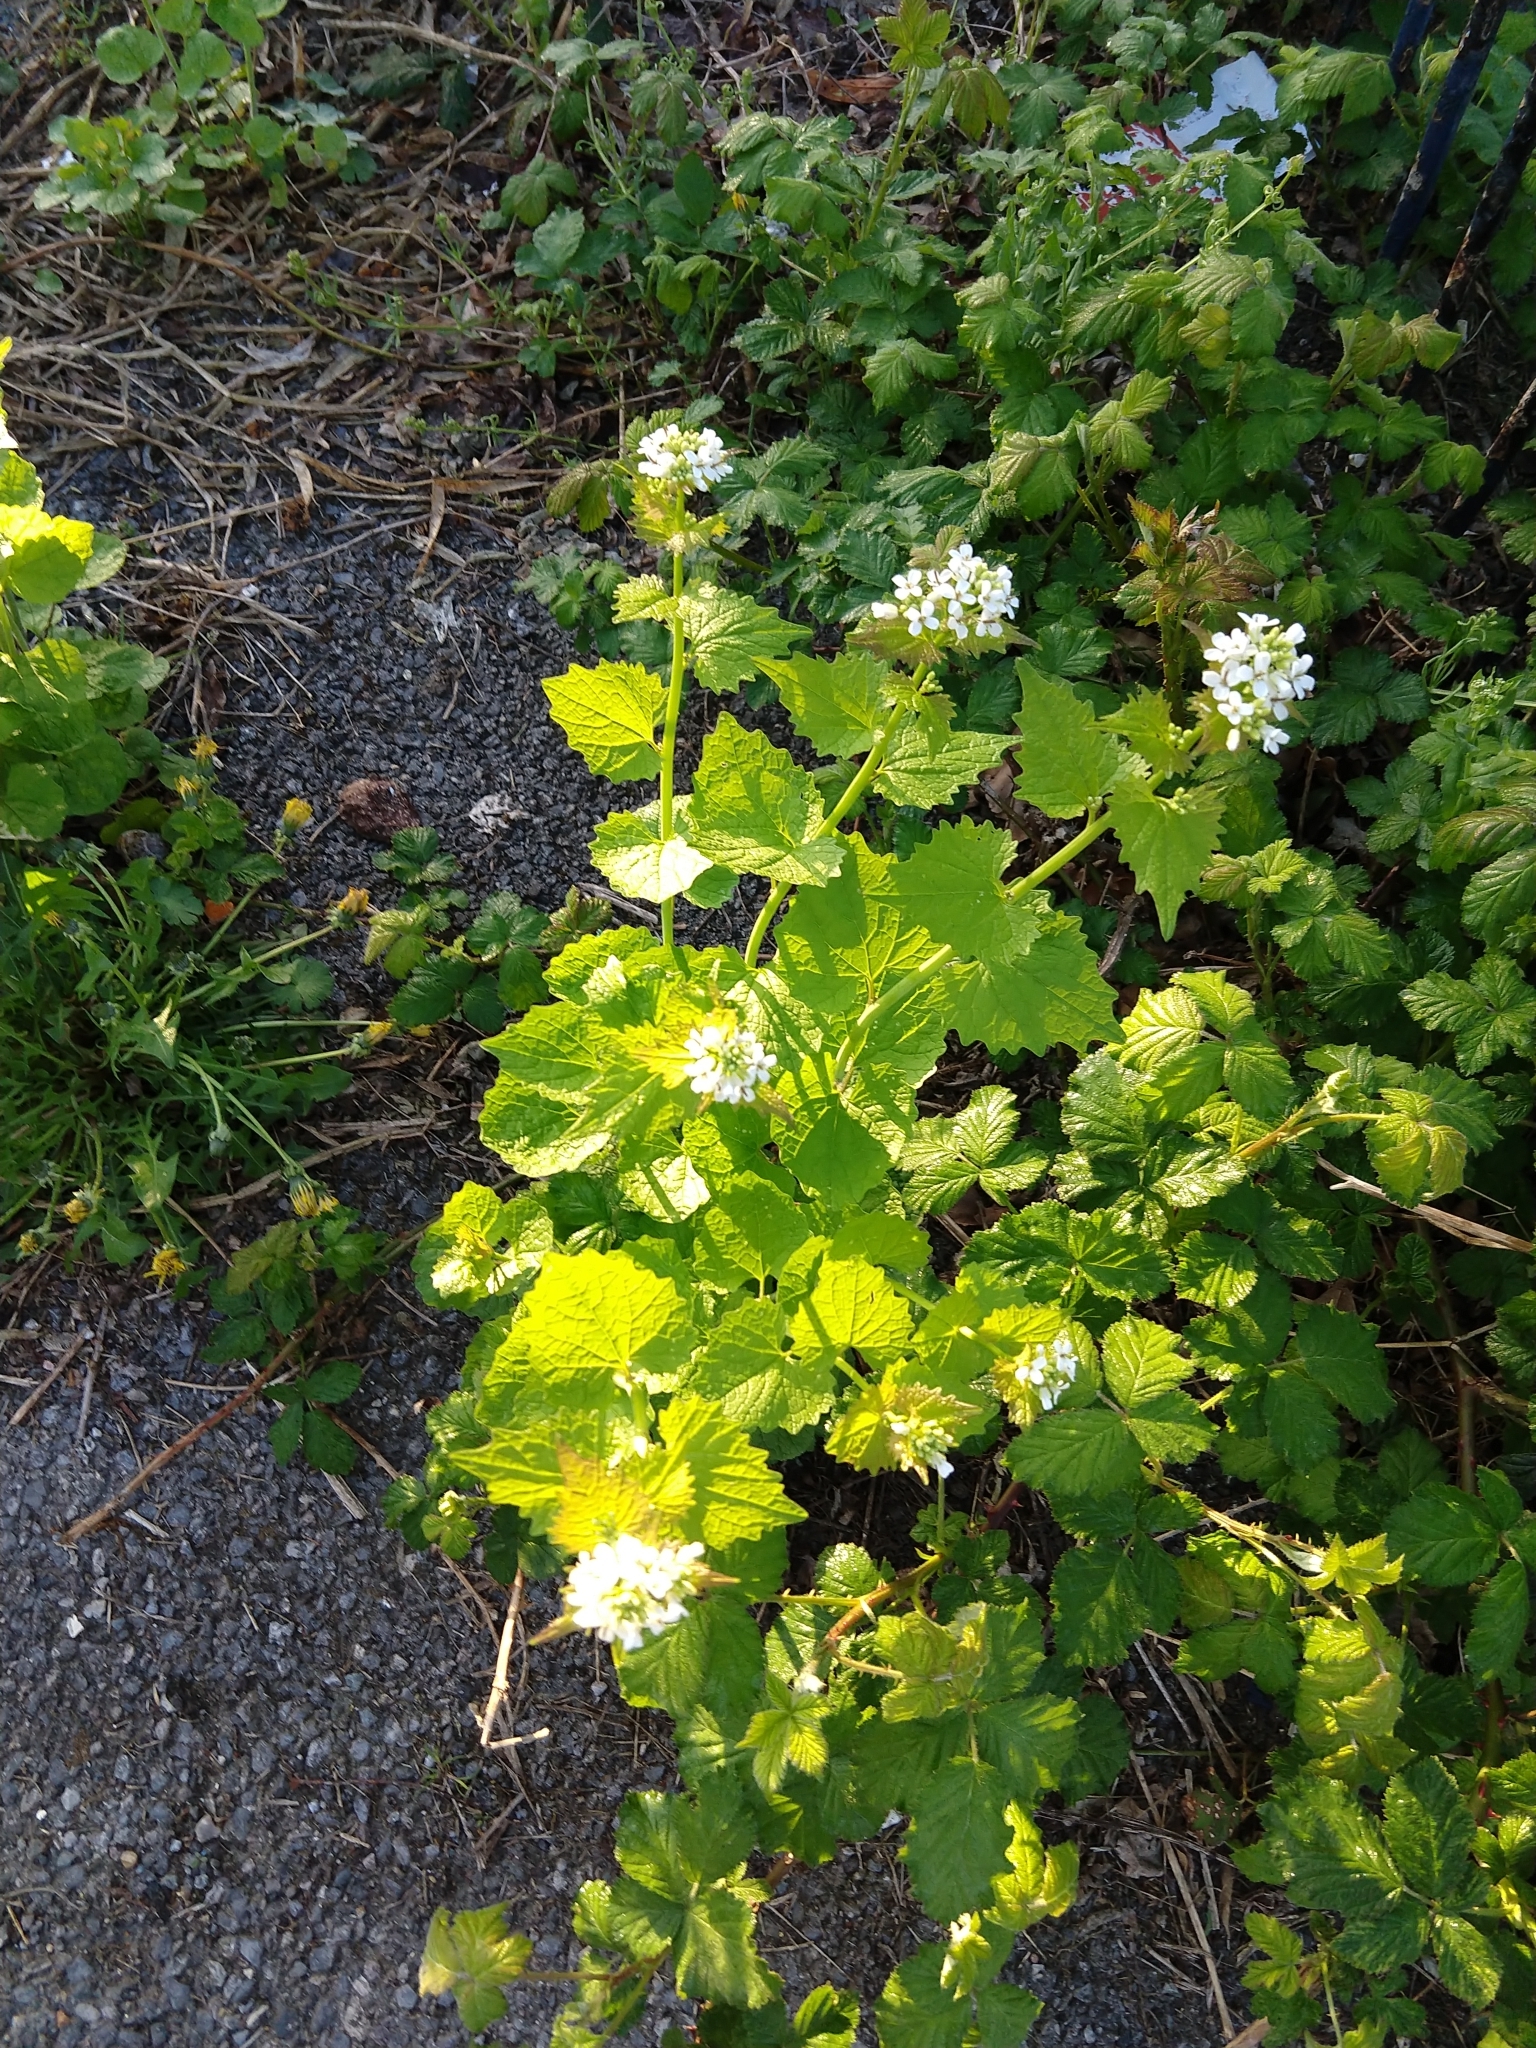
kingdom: Plantae
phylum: Tracheophyta
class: Magnoliopsida
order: Brassicales
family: Brassicaceae
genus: Alliaria
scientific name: Alliaria petiolata
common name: Garlic mustard
